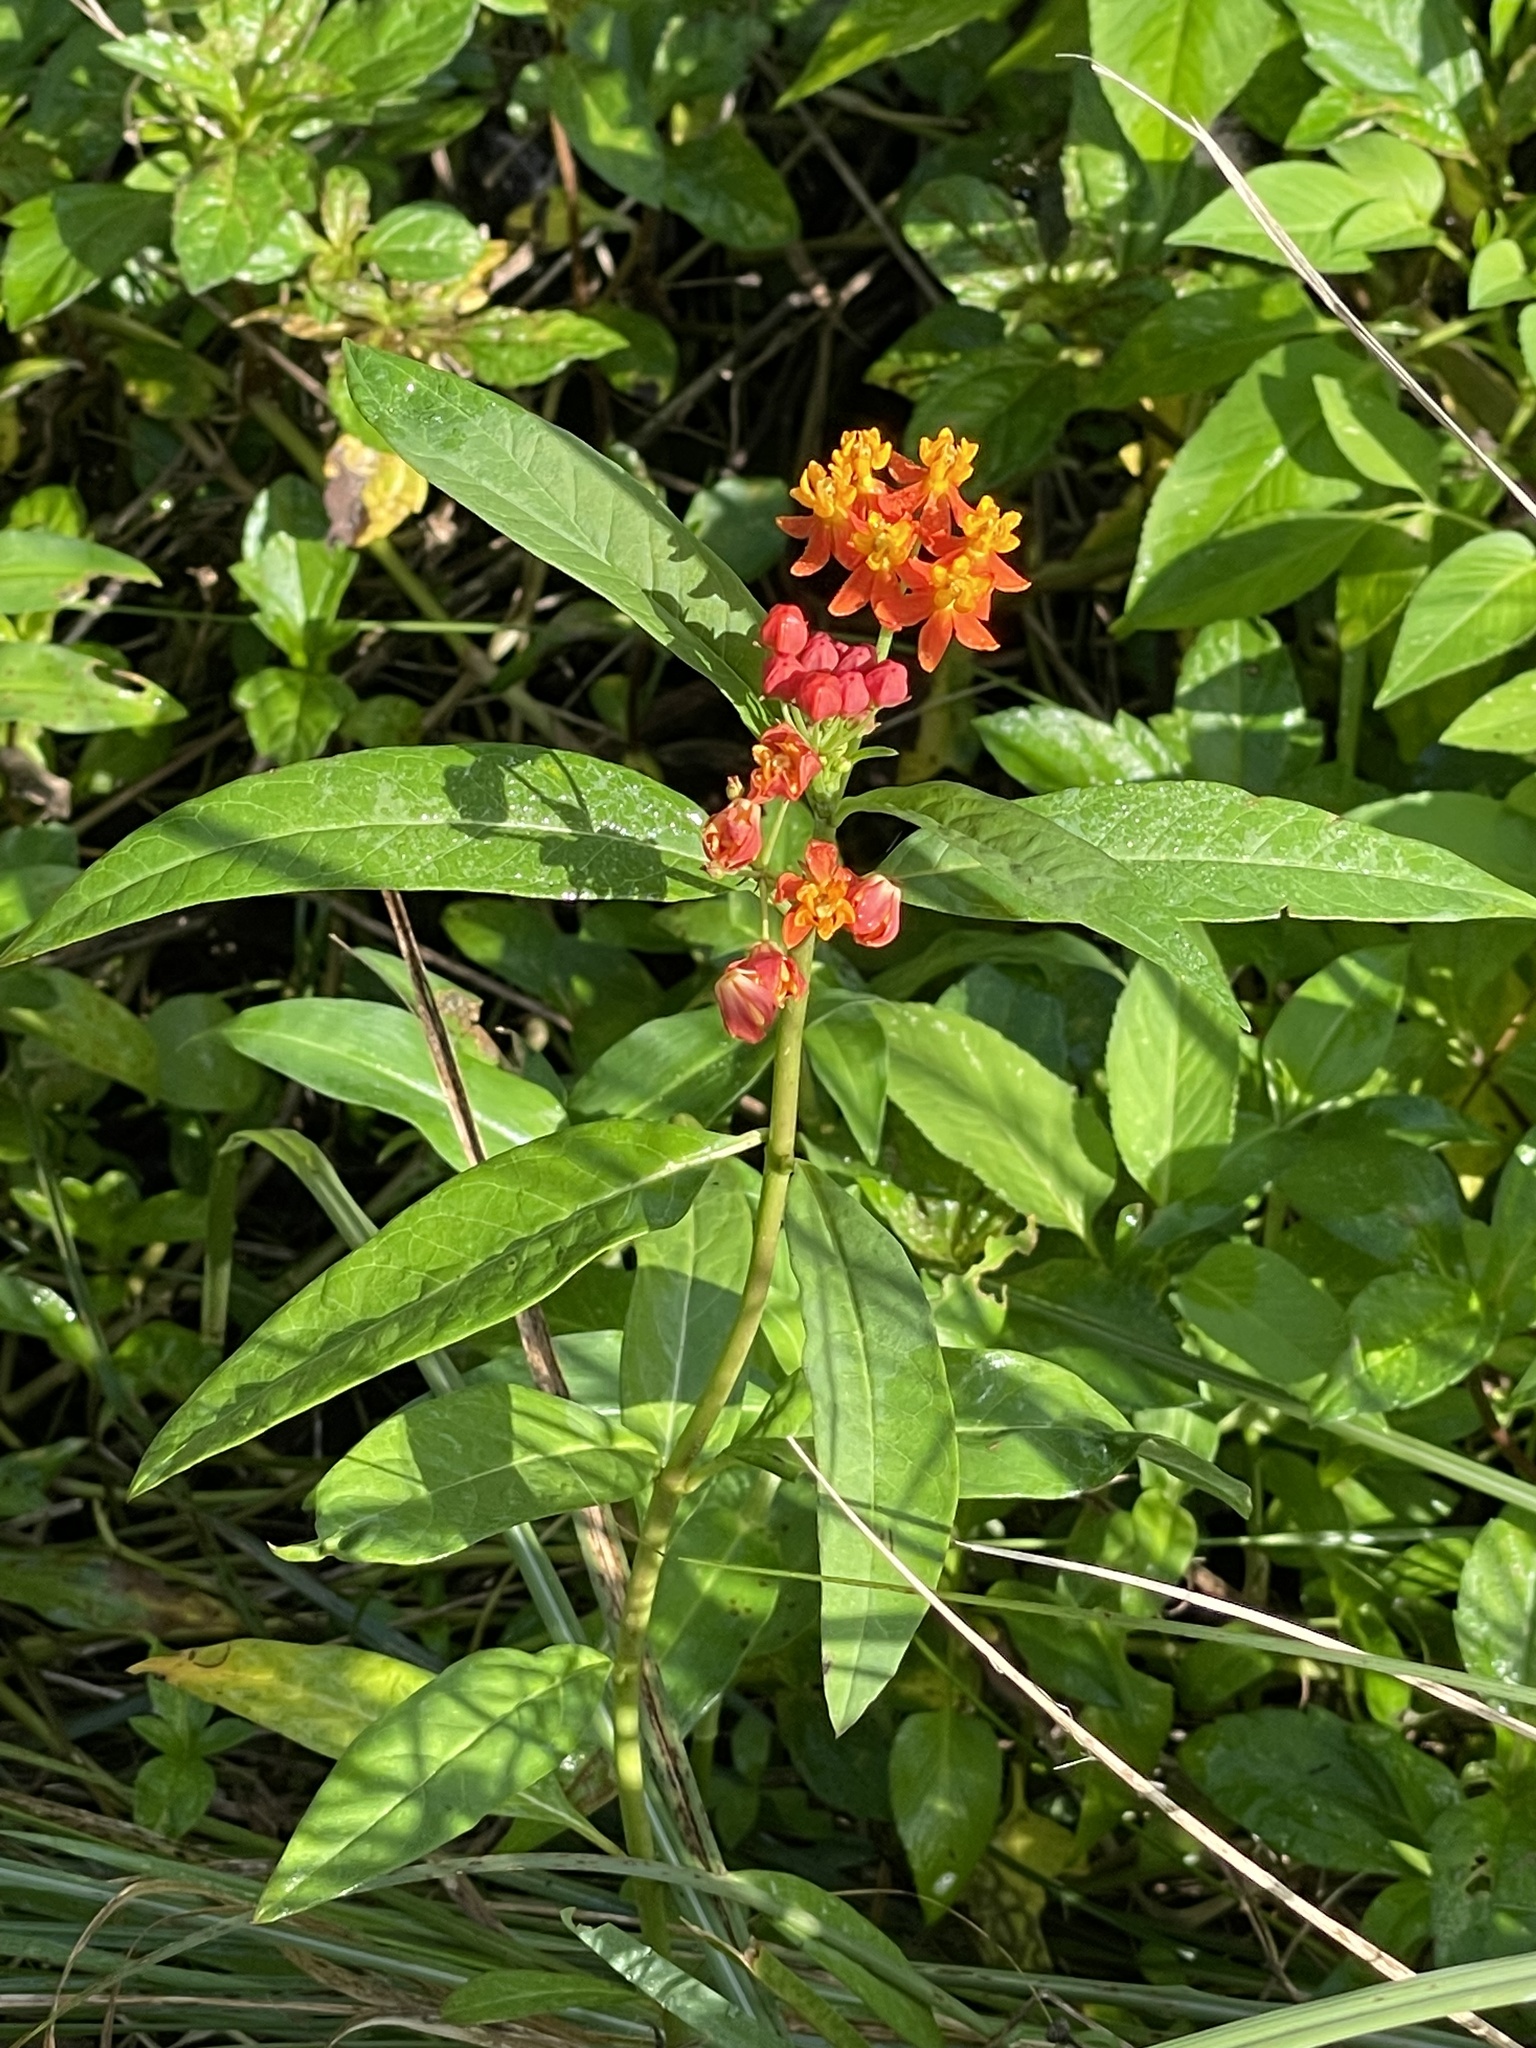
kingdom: Plantae
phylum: Tracheophyta
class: Magnoliopsida
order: Gentianales
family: Apocynaceae
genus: Asclepias
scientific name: Asclepias curassavica
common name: Bloodflower
